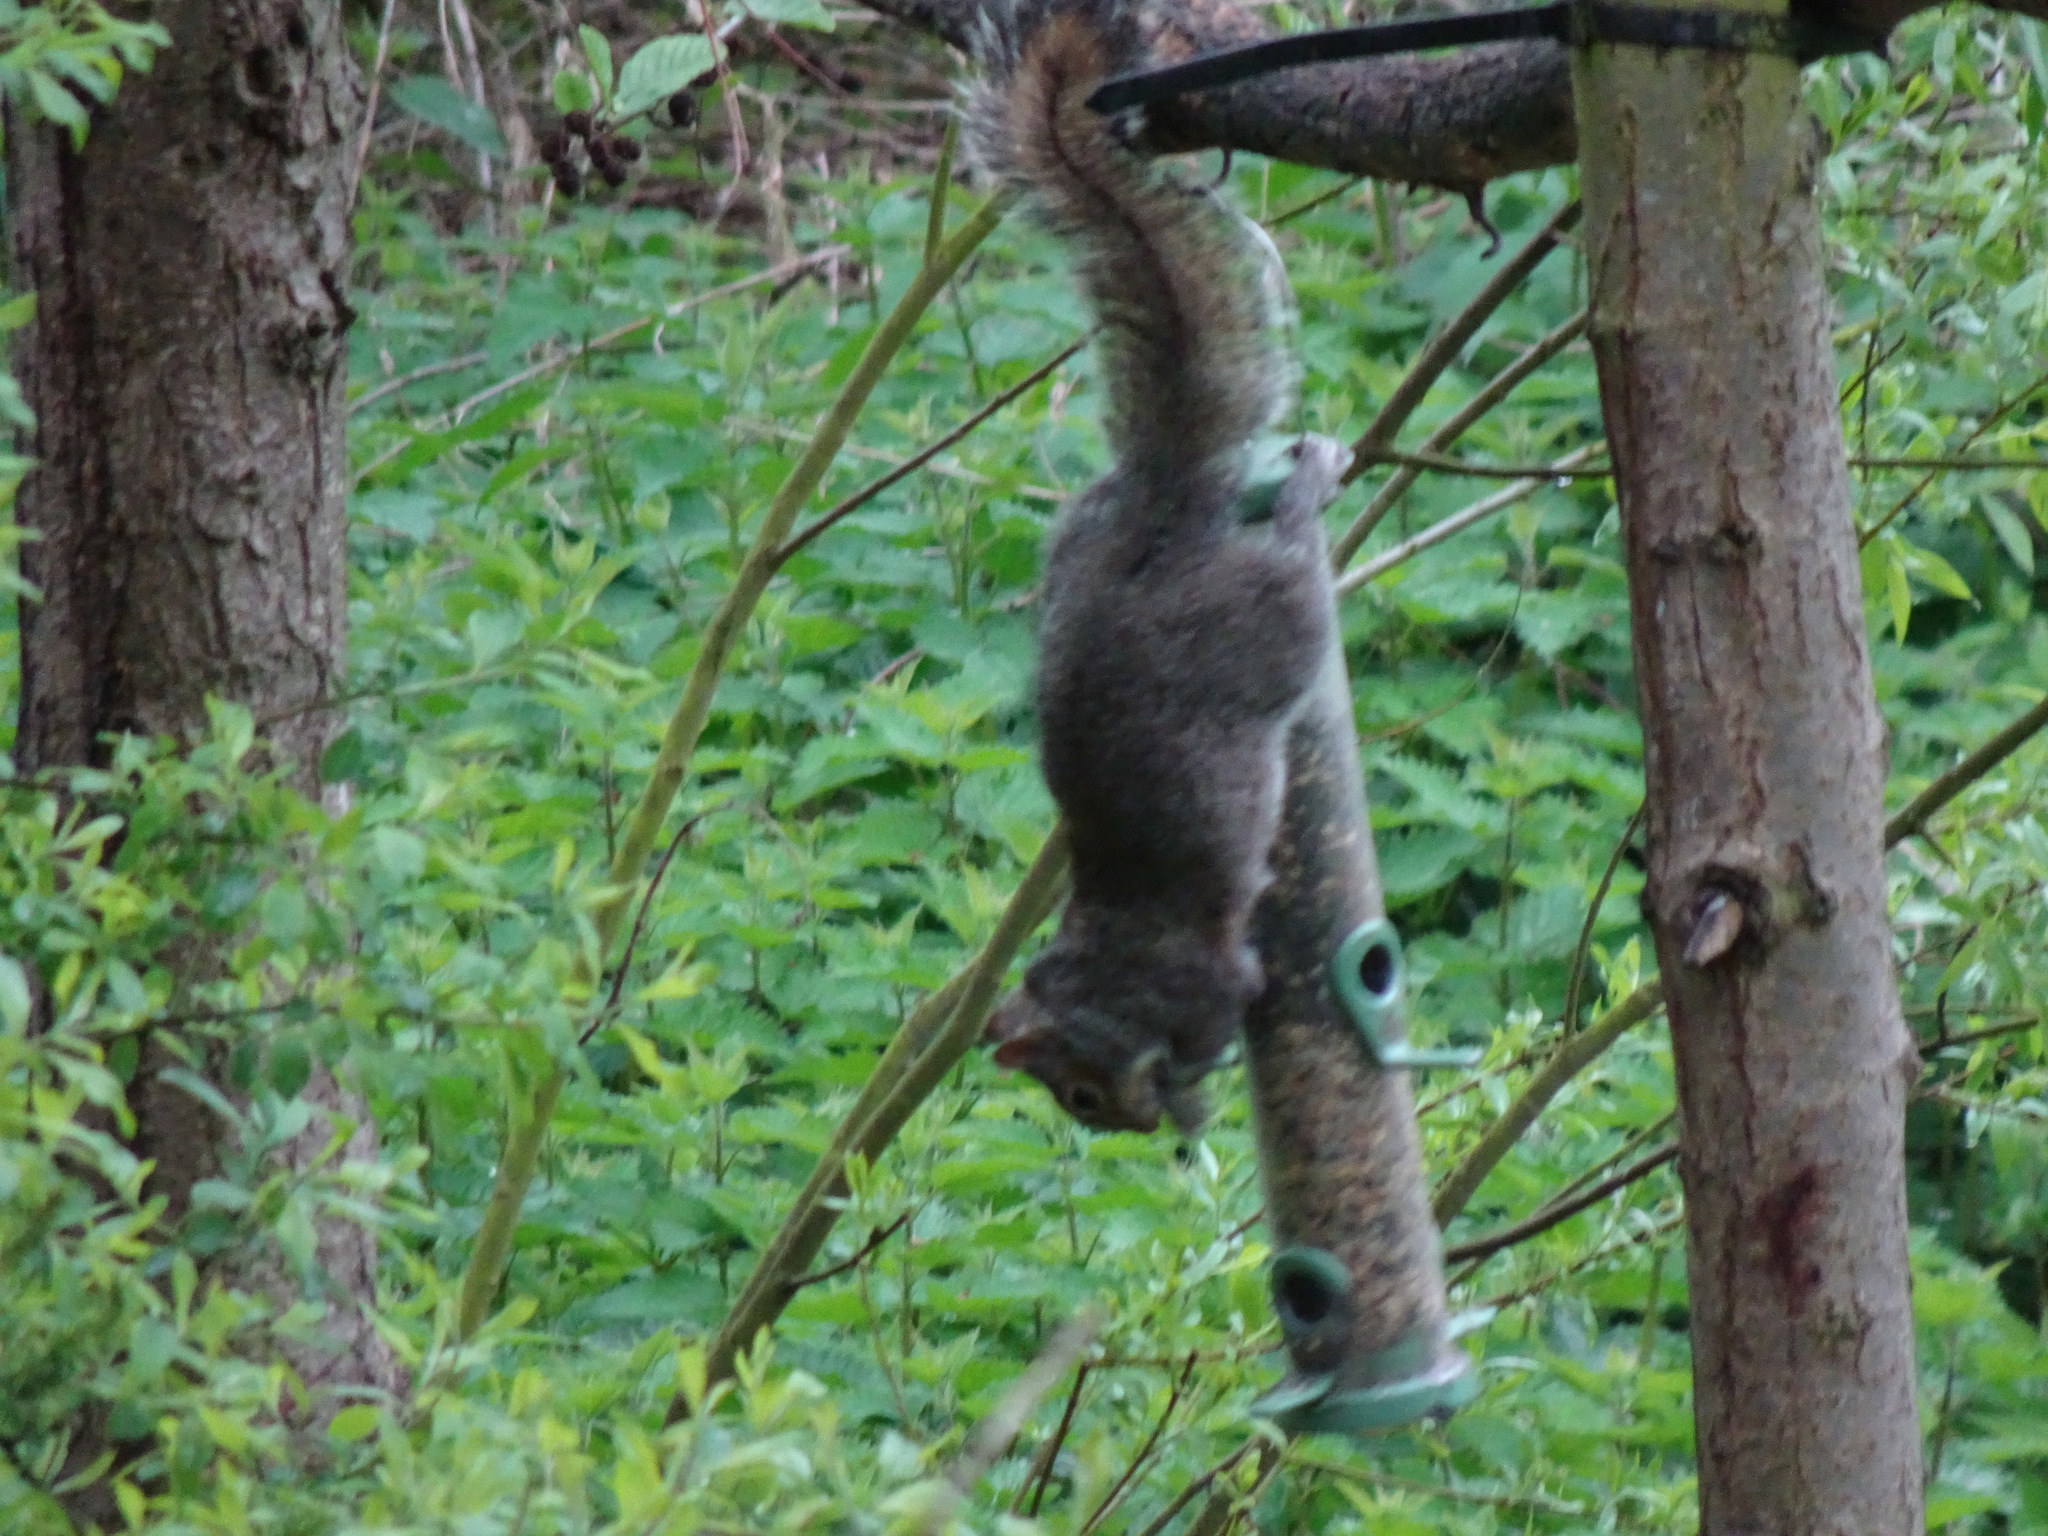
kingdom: Animalia
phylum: Chordata
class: Mammalia
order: Rodentia
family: Sciuridae
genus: Sciurus
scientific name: Sciurus carolinensis
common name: Eastern gray squirrel
